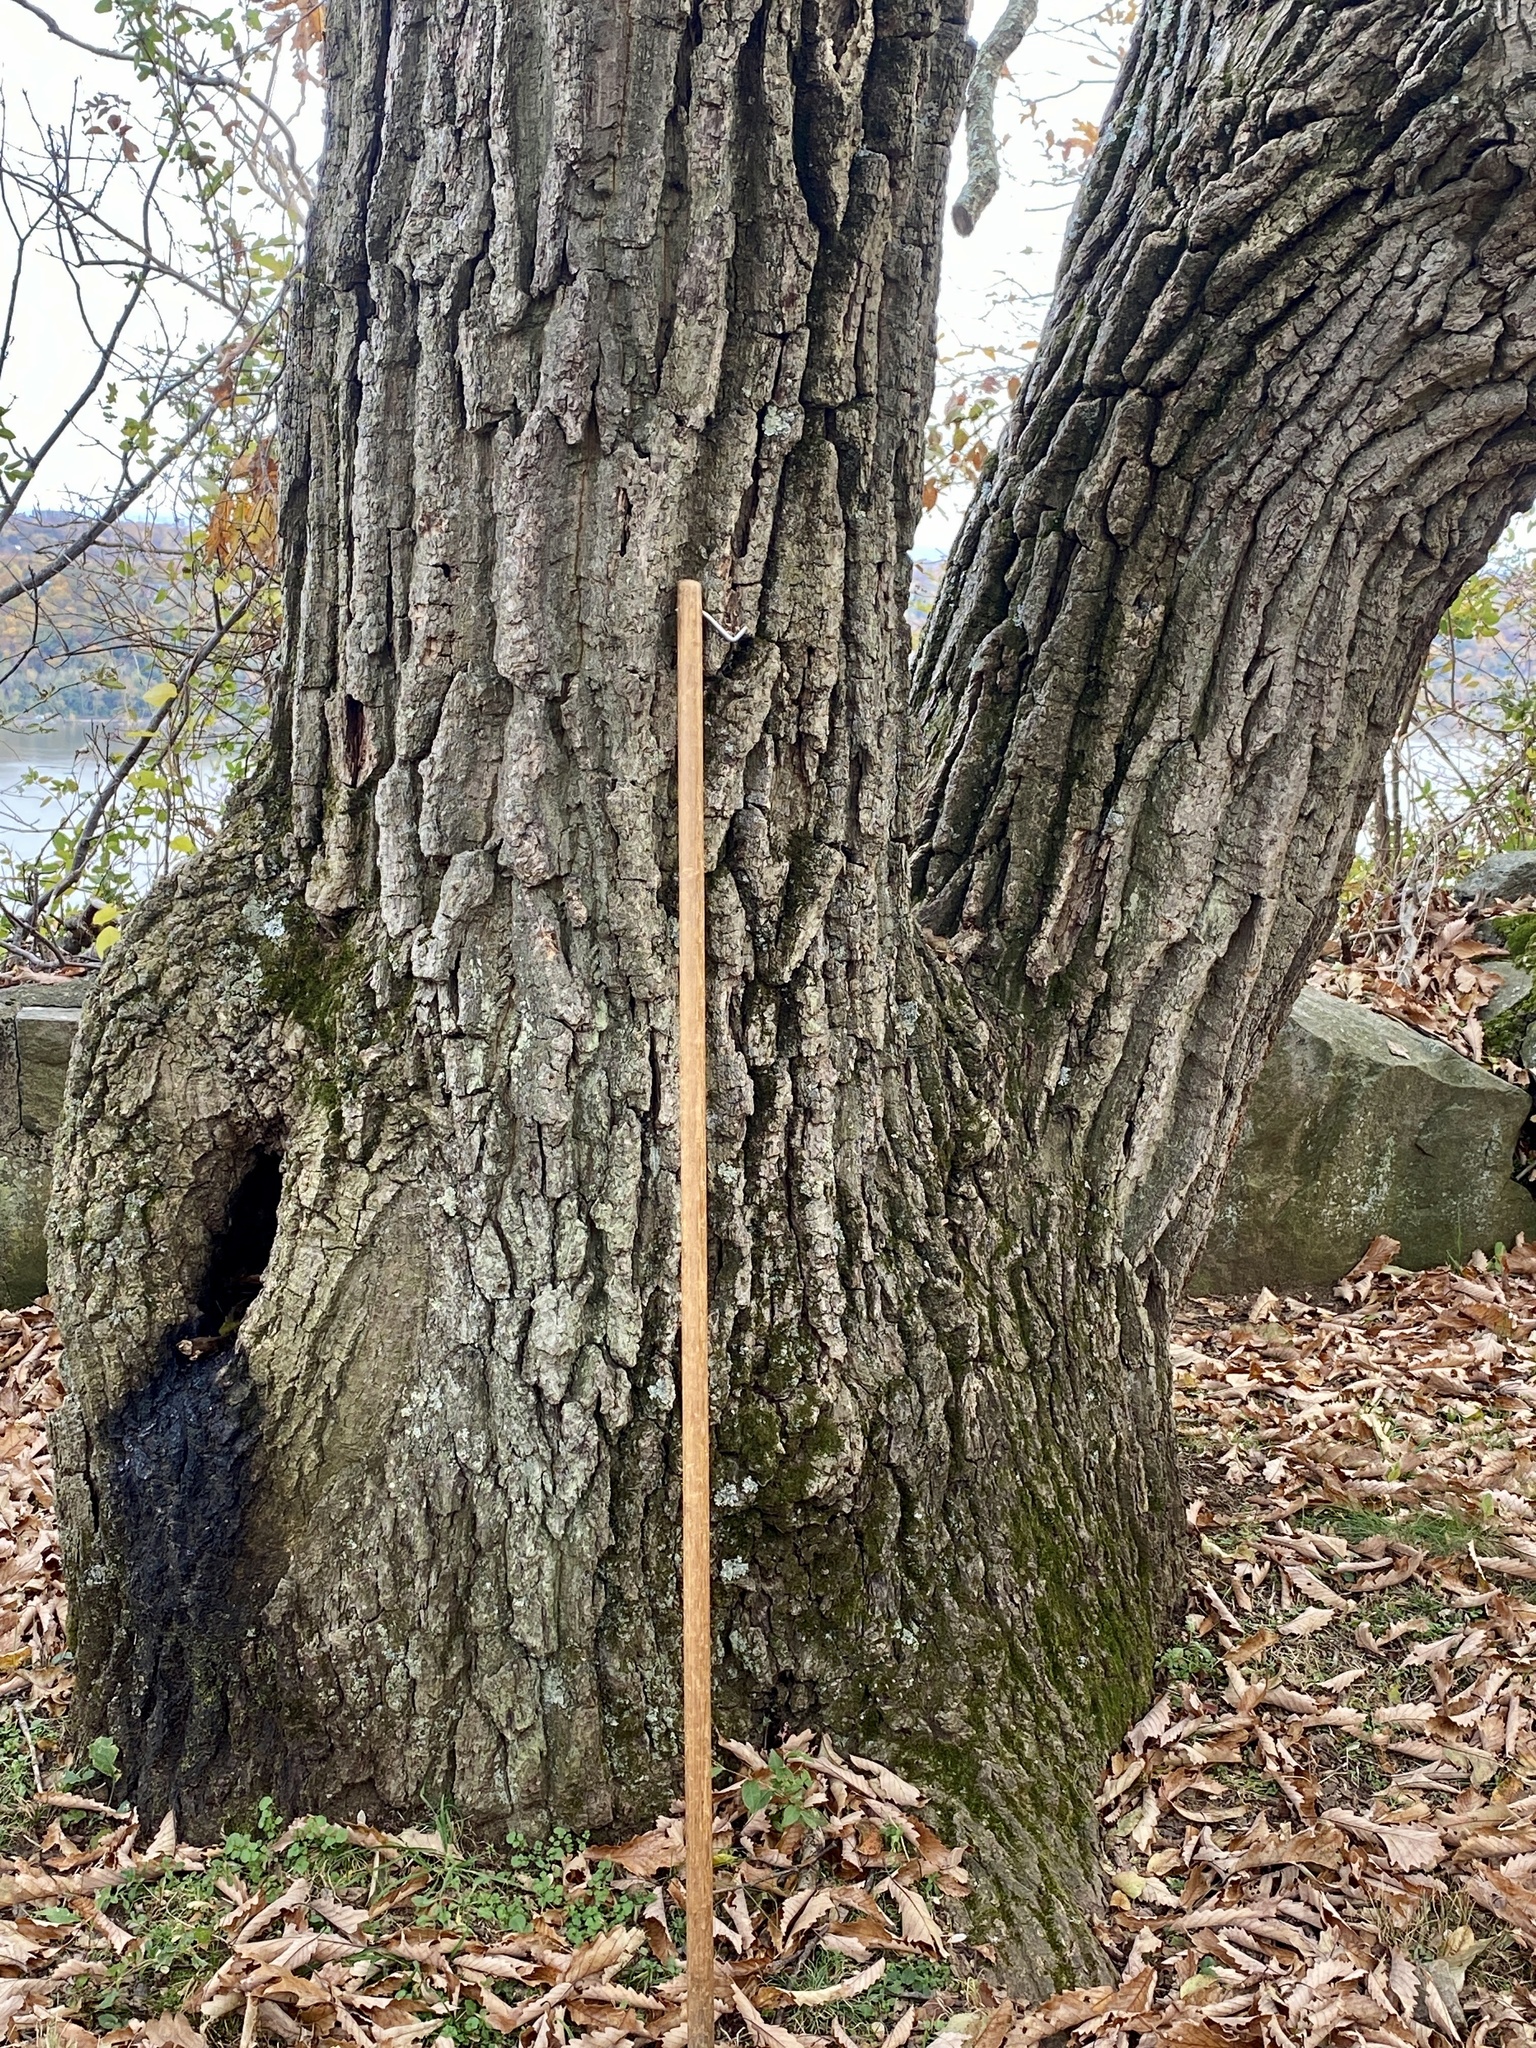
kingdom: Plantae
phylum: Tracheophyta
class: Magnoliopsida
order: Fagales
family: Fagaceae
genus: Quercus
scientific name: Quercus montana
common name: Chestnut oak
